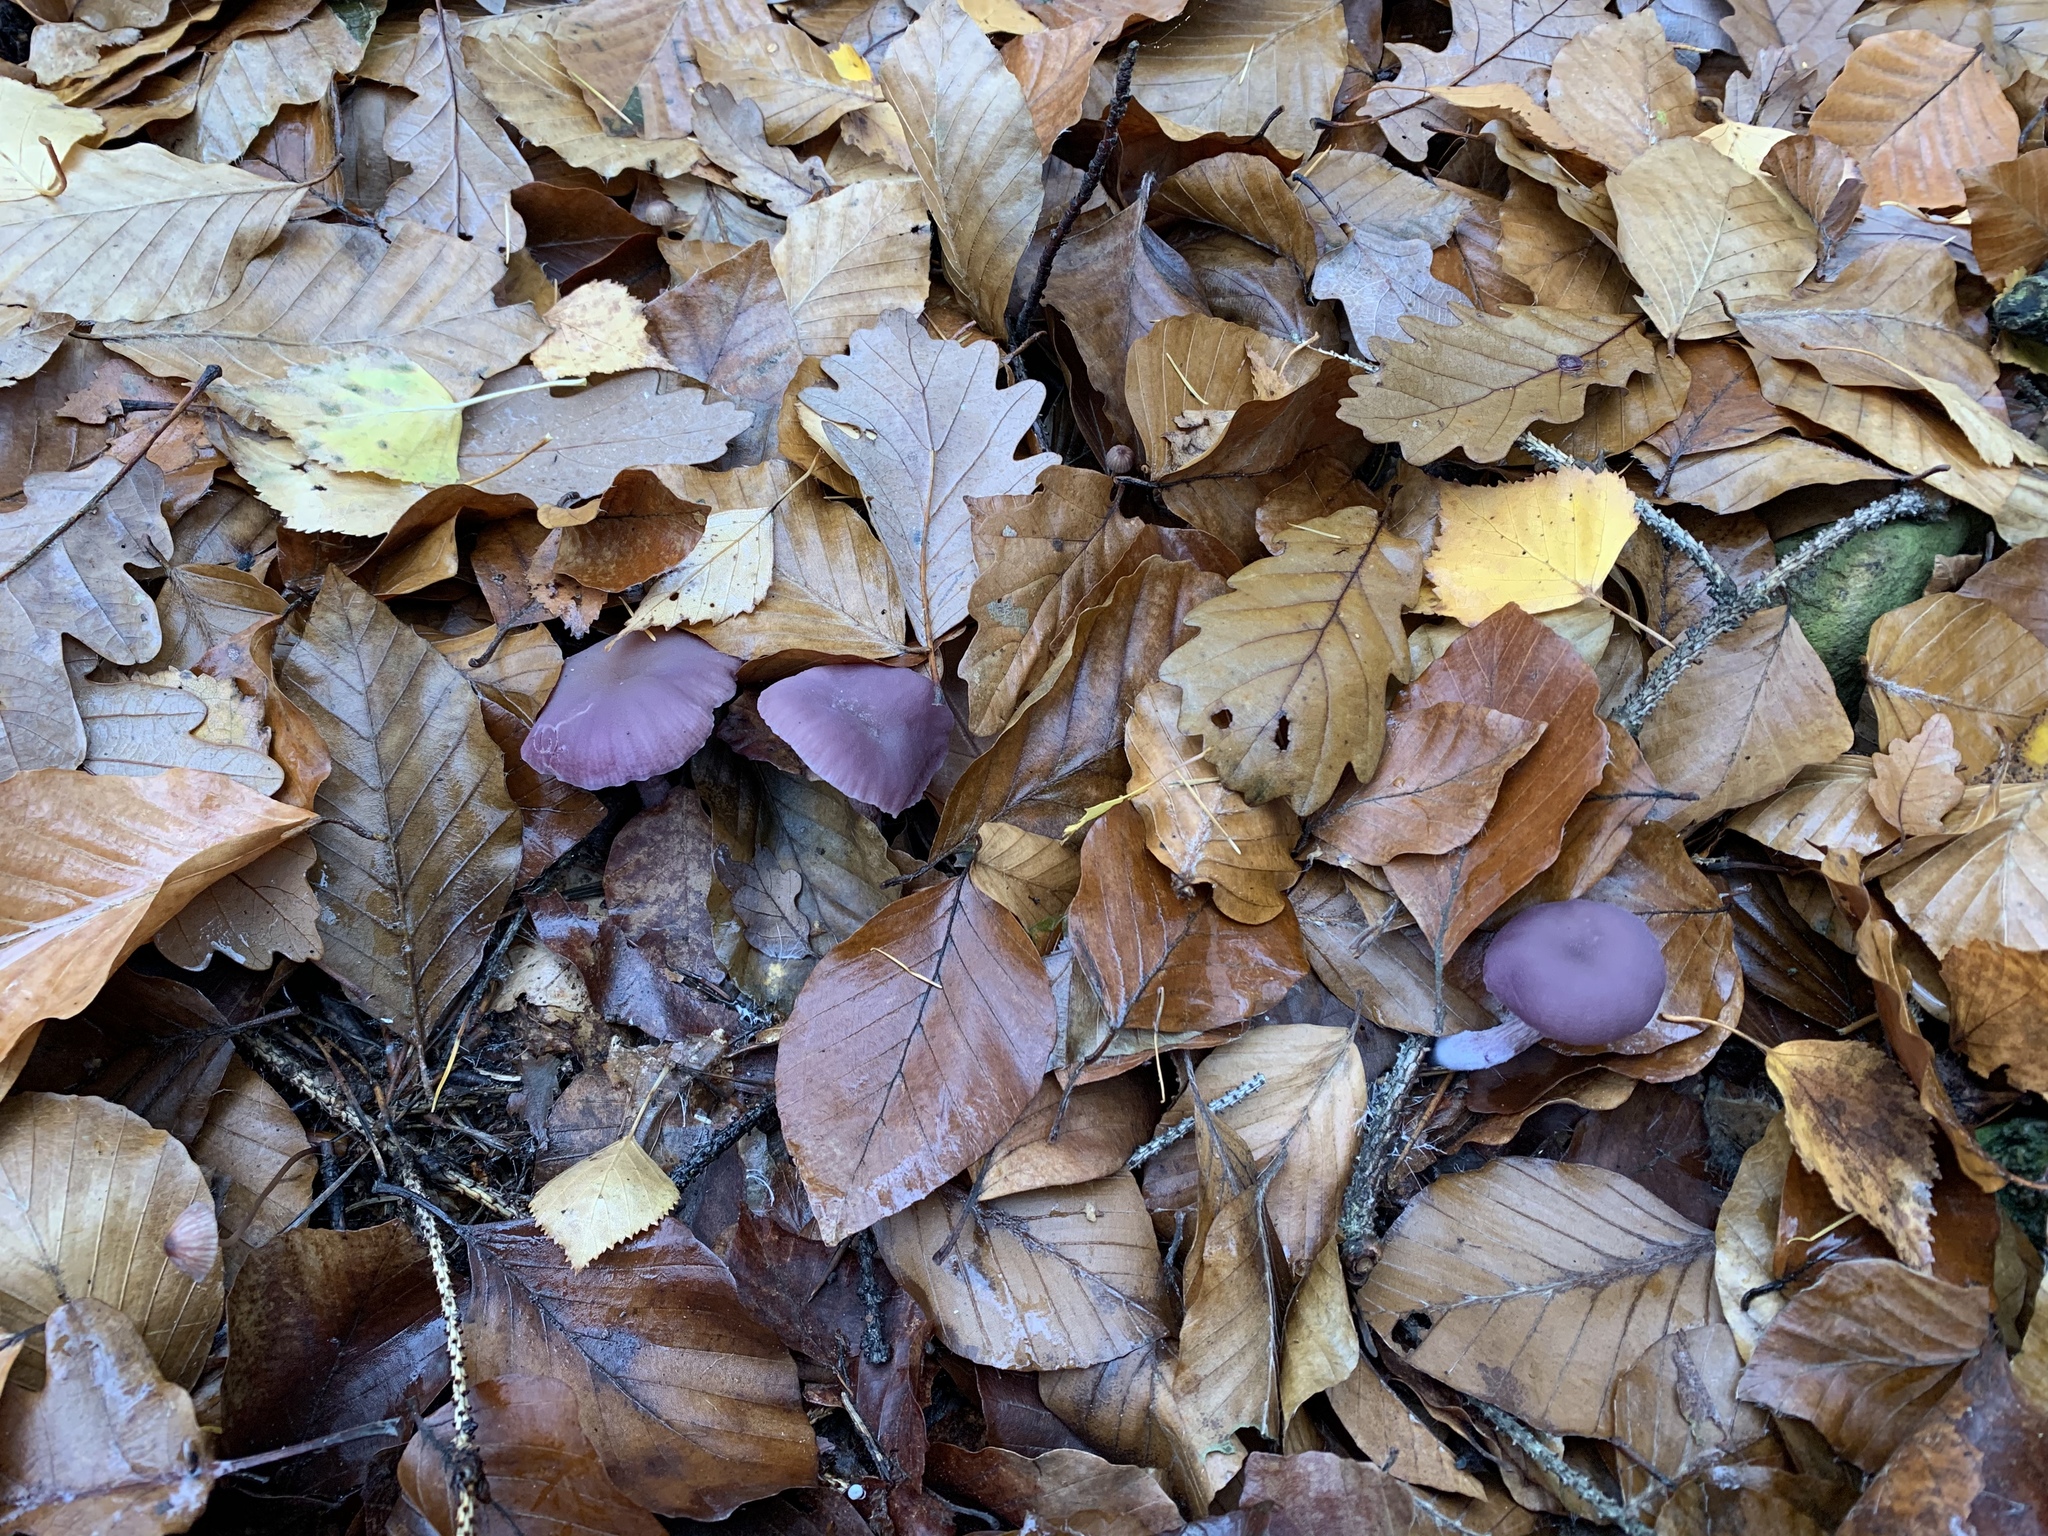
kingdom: Fungi
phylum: Basidiomycota
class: Agaricomycetes
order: Agaricales
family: Hydnangiaceae
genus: Laccaria
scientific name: Laccaria amethystina
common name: Amethyst deceiver
